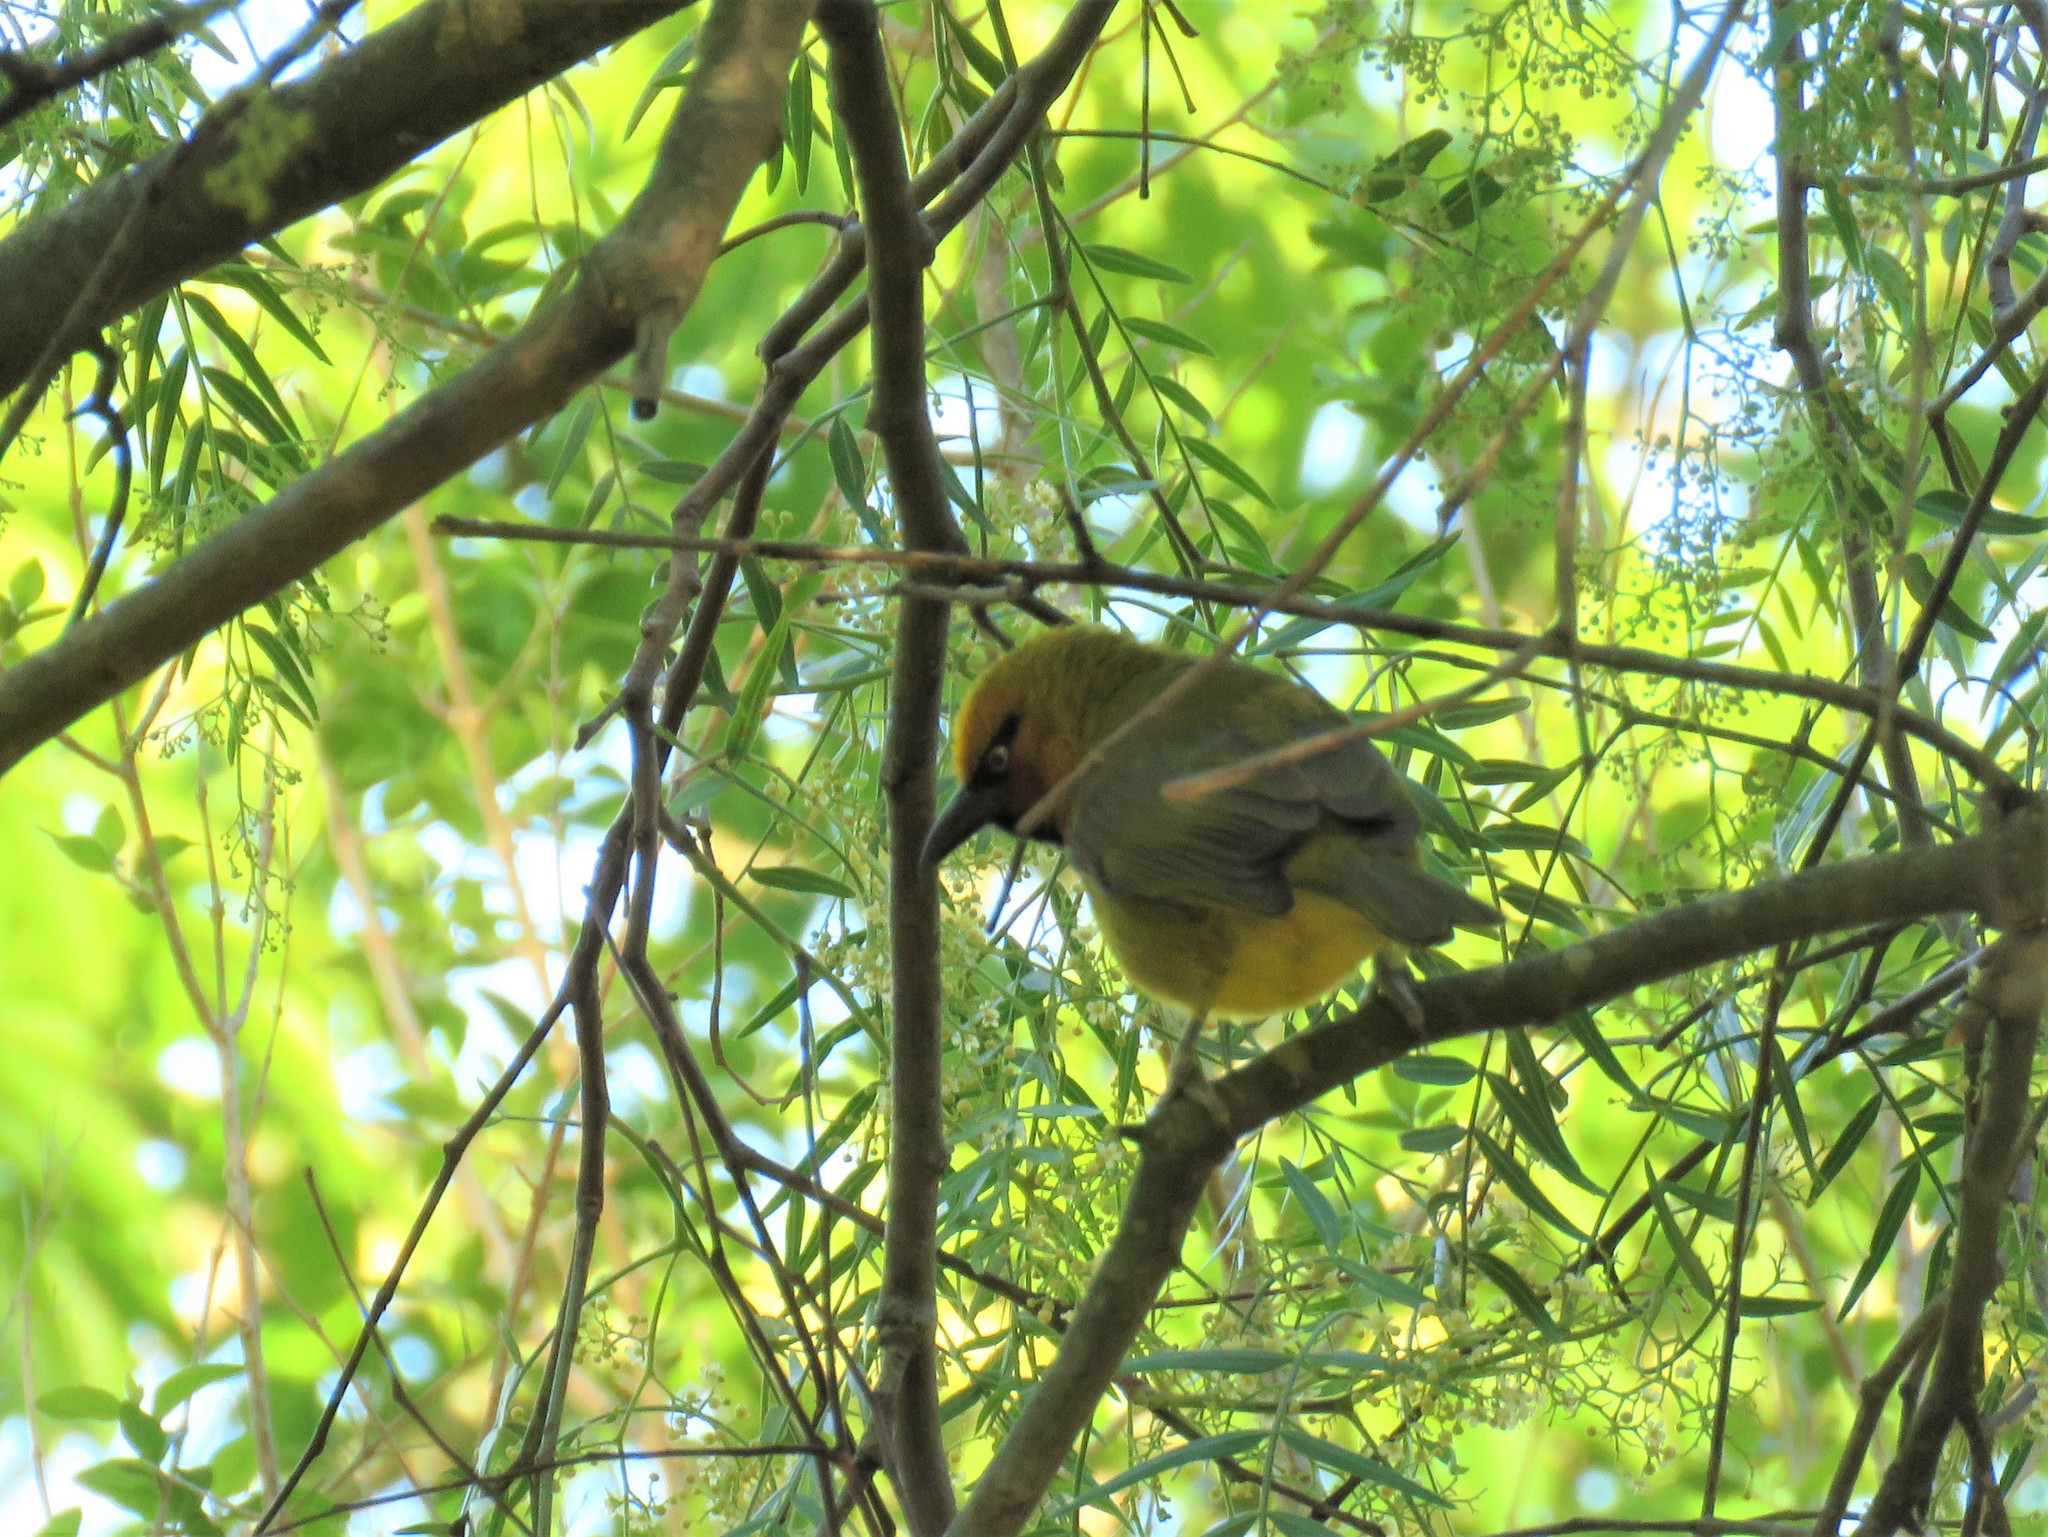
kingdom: Animalia
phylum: Chordata
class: Aves
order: Passeriformes
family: Ploceidae
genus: Ploceus
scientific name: Ploceus ocularis
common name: Spectacled weaver
